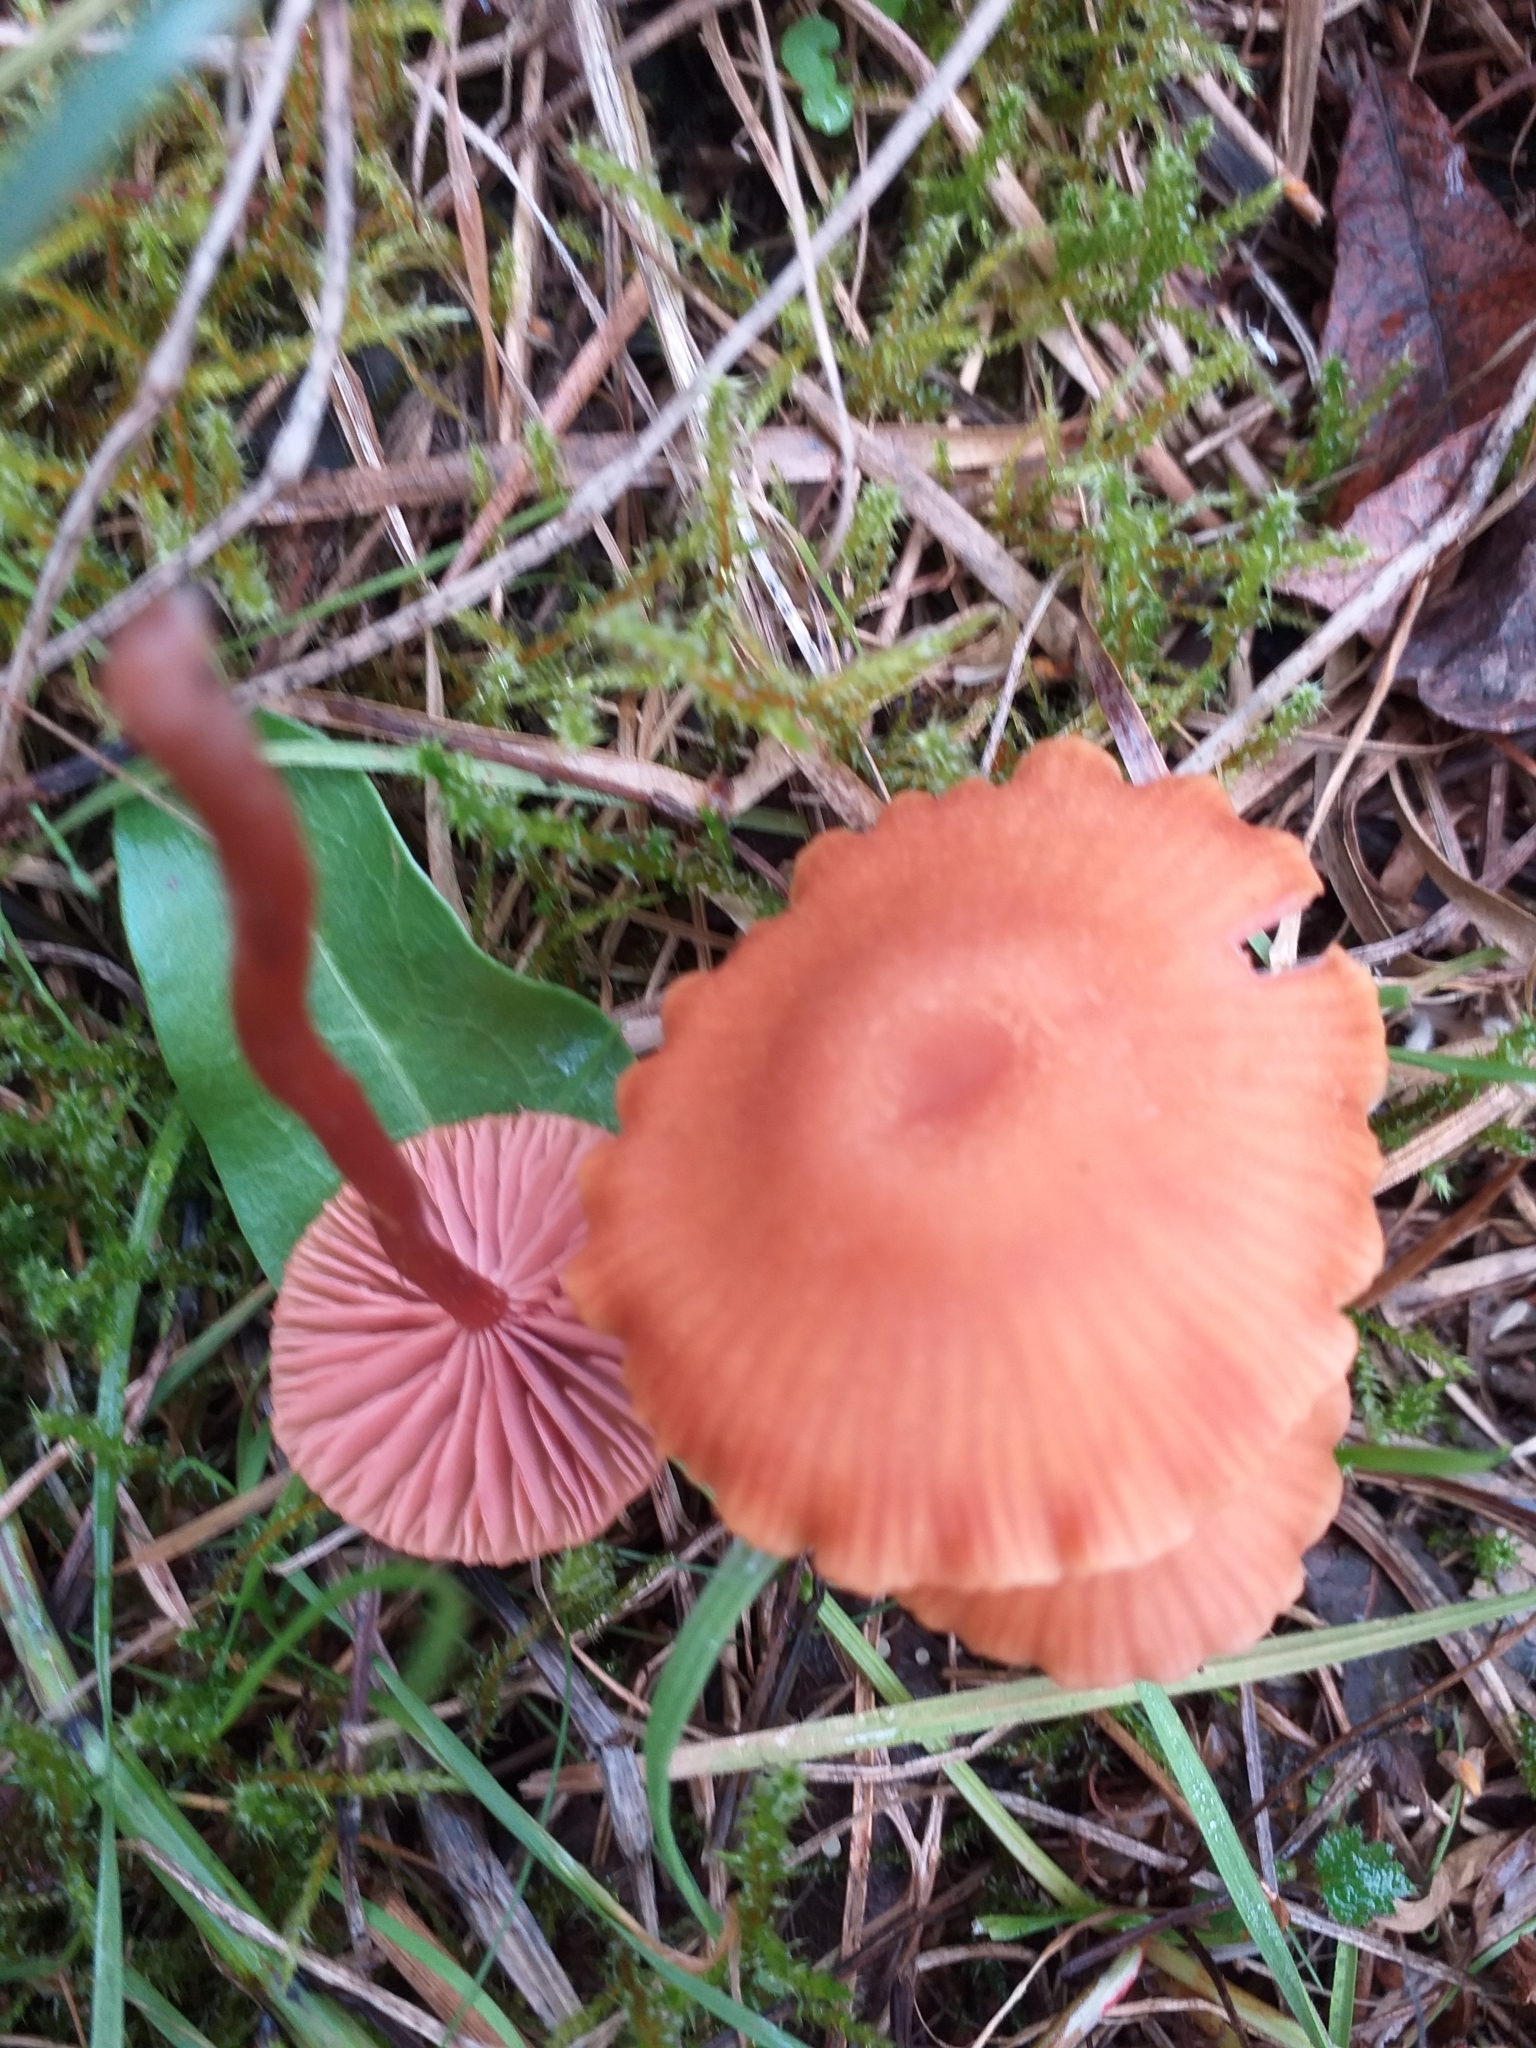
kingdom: Fungi
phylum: Basidiomycota
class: Agaricomycetes
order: Agaricales
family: Hydnangiaceae
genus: Laccaria
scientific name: Laccaria laccata
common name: Deceiver
